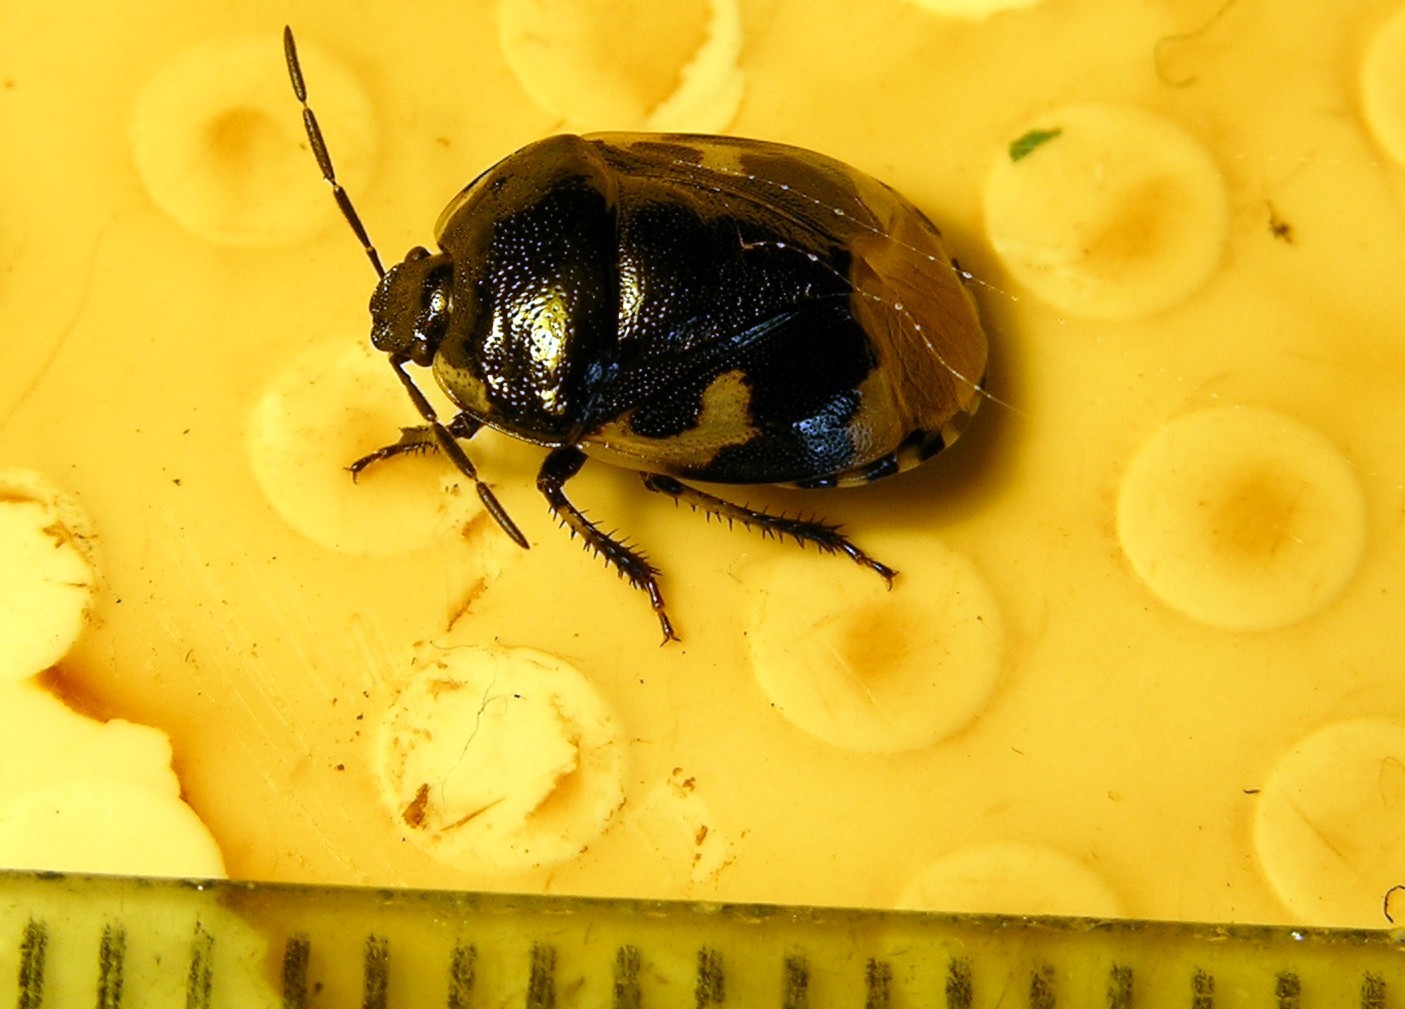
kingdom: Animalia
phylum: Arthropoda
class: Insecta
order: Hemiptera
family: Cydnidae
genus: Tritomegas
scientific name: Tritomegas bicolor
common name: Pied shieldbug
